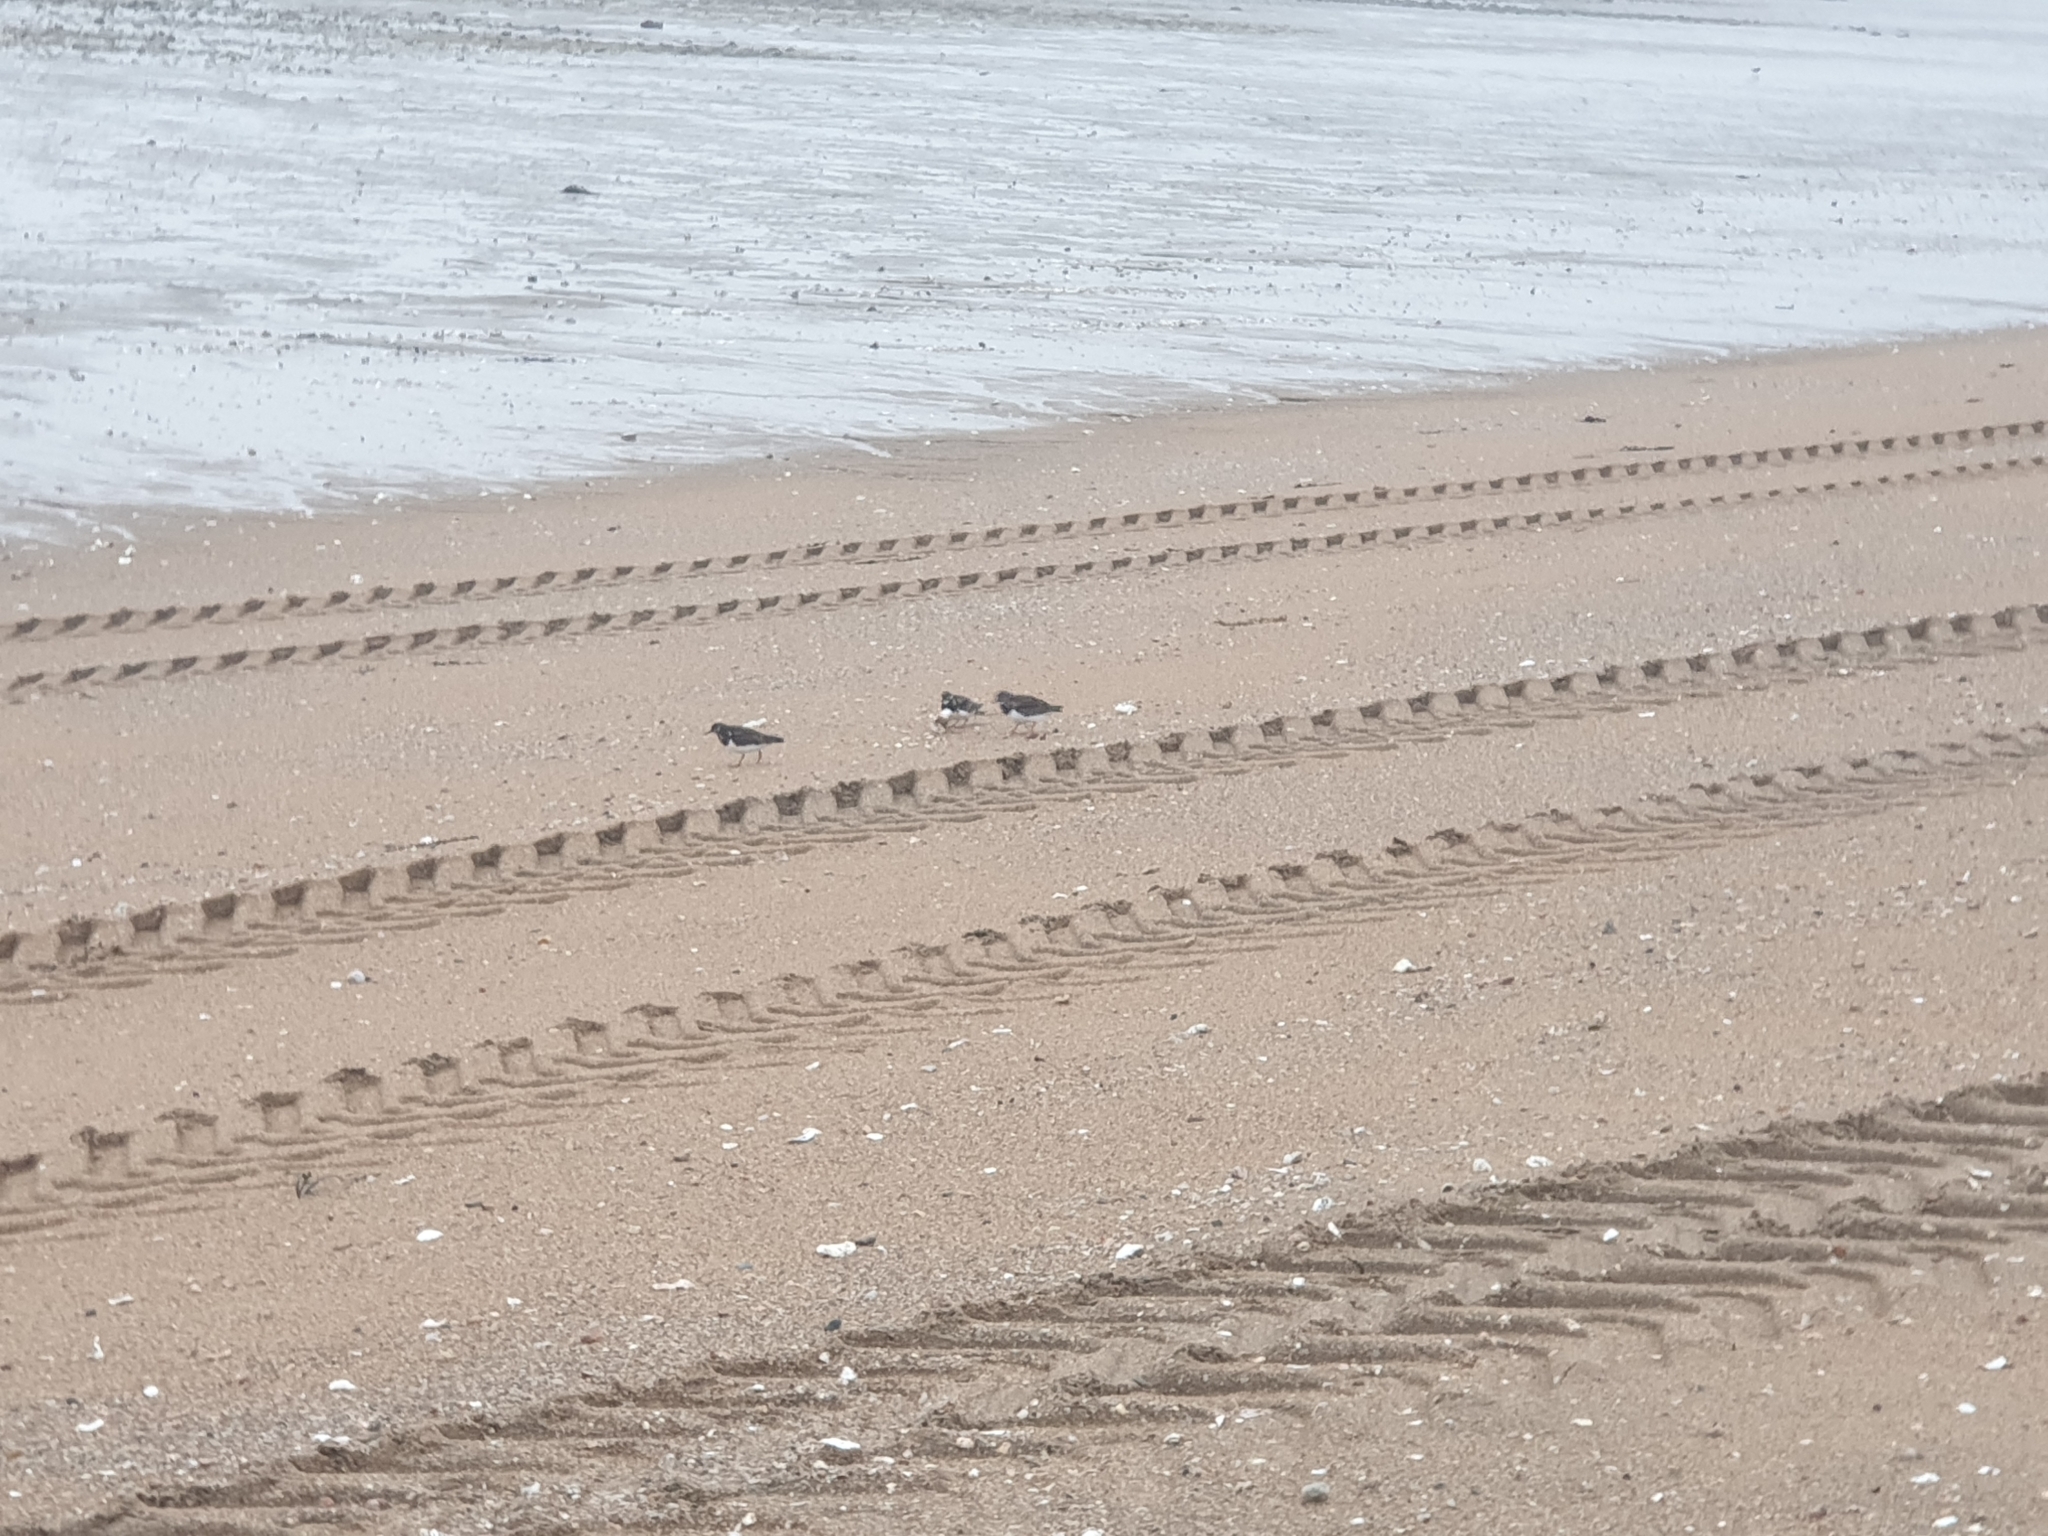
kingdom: Animalia
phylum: Chordata
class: Aves
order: Charadriiformes
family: Scolopacidae
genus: Arenaria
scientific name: Arenaria interpres
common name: Ruddy turnstone
